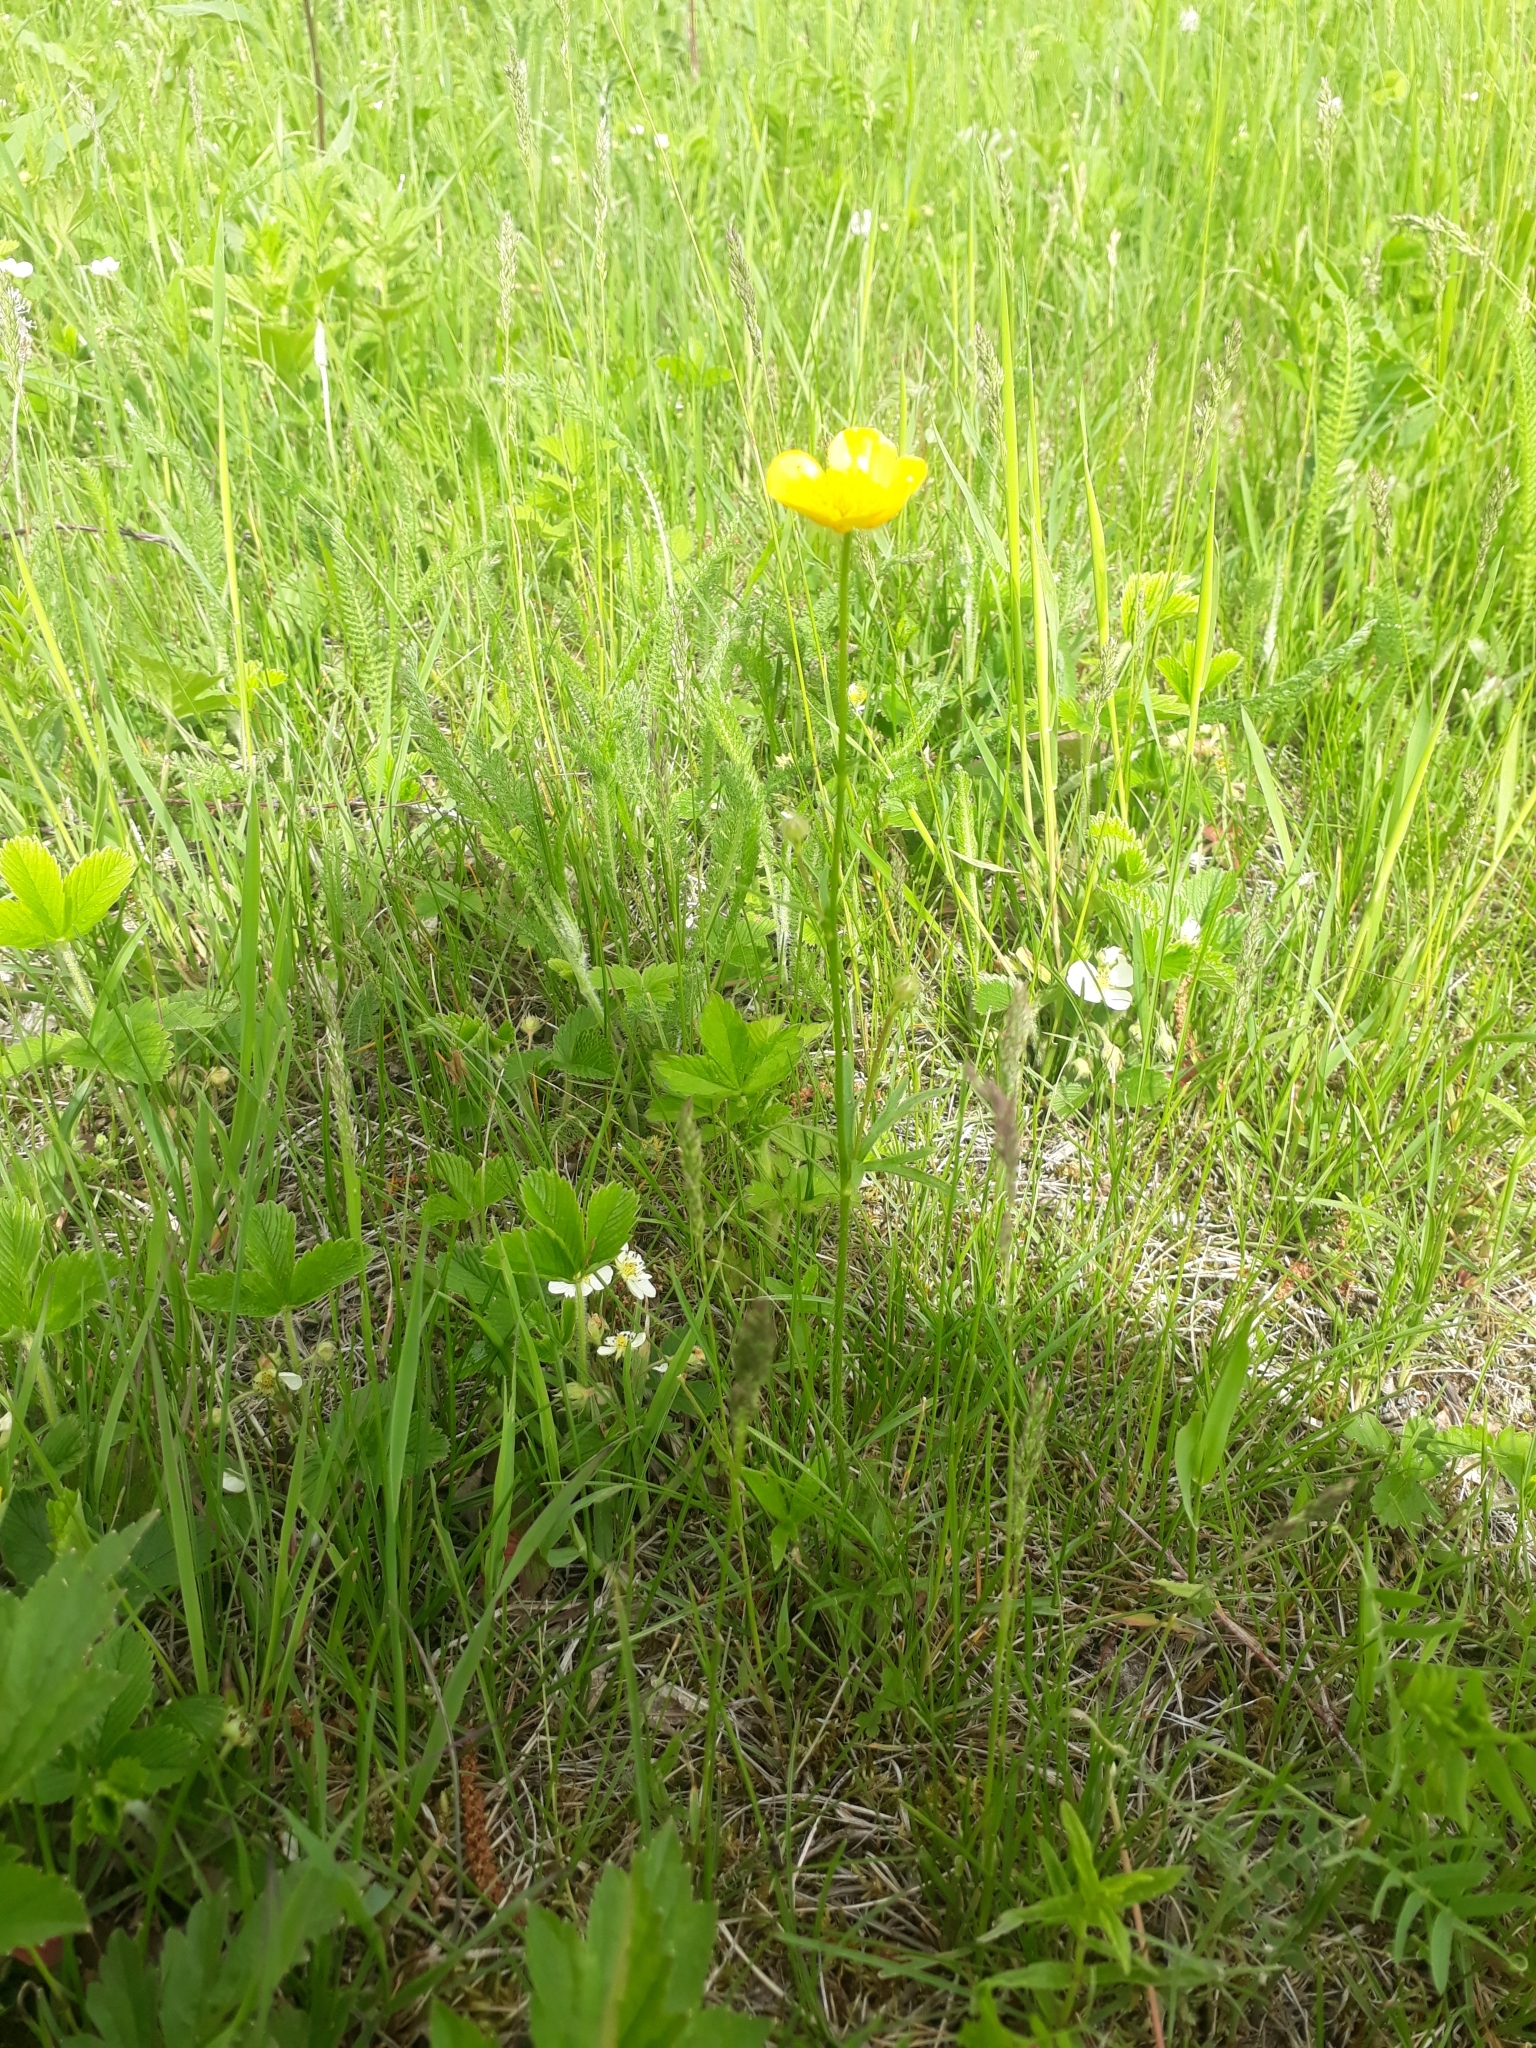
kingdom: Plantae
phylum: Tracheophyta
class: Magnoliopsida
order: Ranunculales
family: Ranunculaceae
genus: Ranunculus
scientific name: Ranunculus polyanthemos
